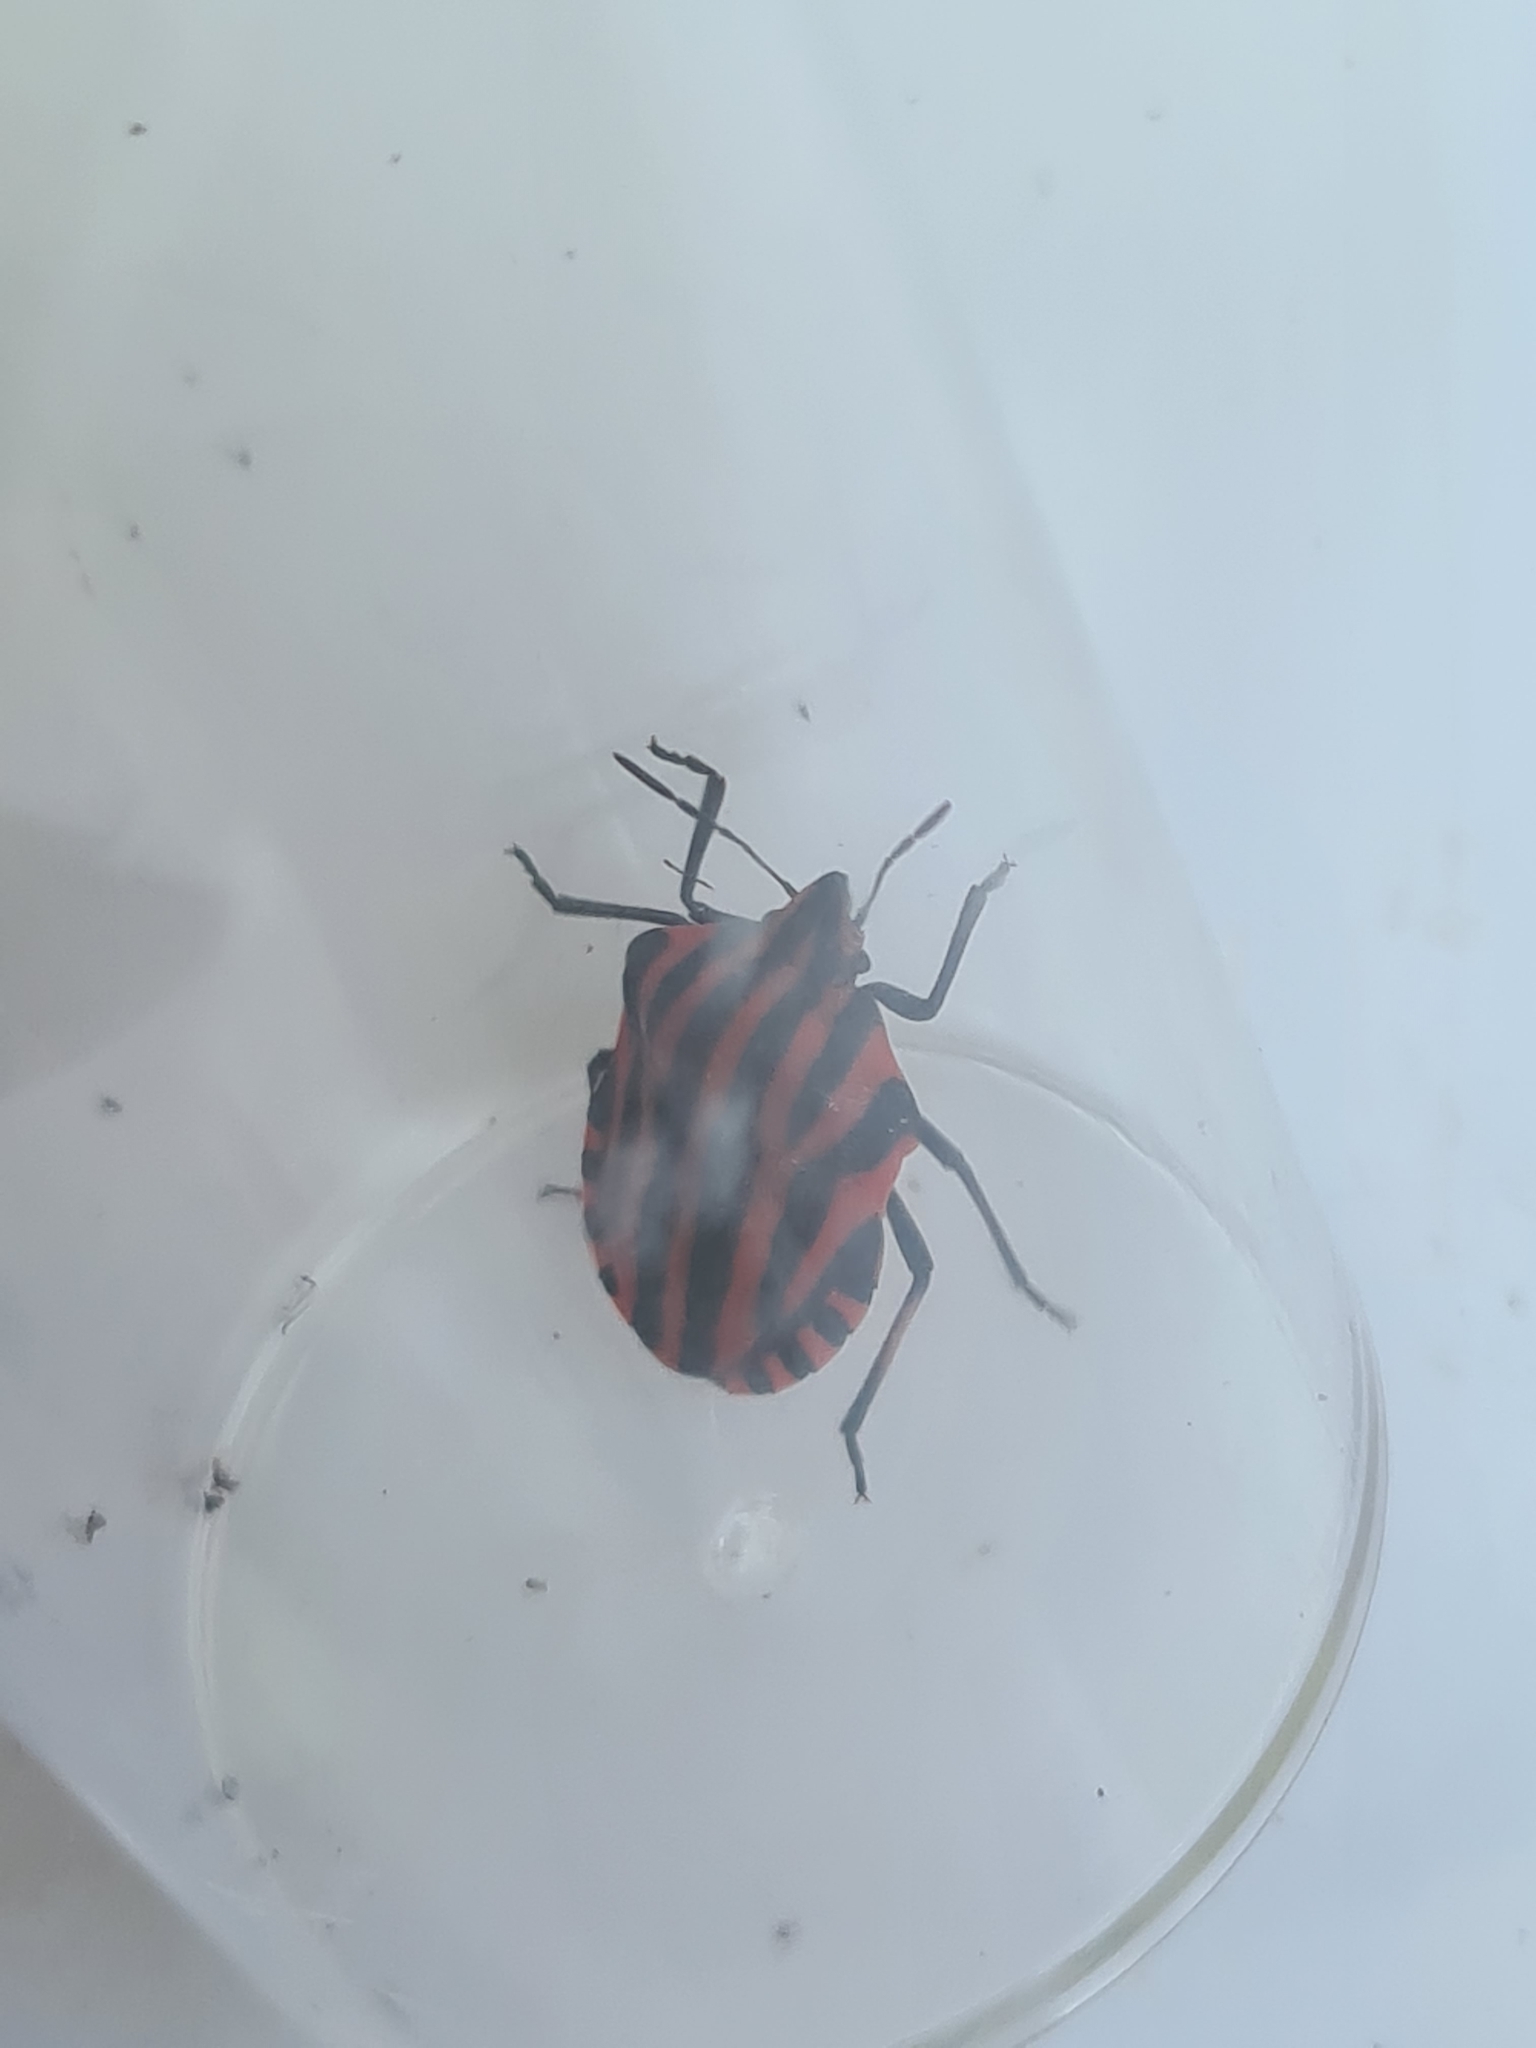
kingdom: Animalia
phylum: Arthropoda
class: Insecta
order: Hemiptera
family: Pentatomidae
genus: Graphosoma
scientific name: Graphosoma italicum
